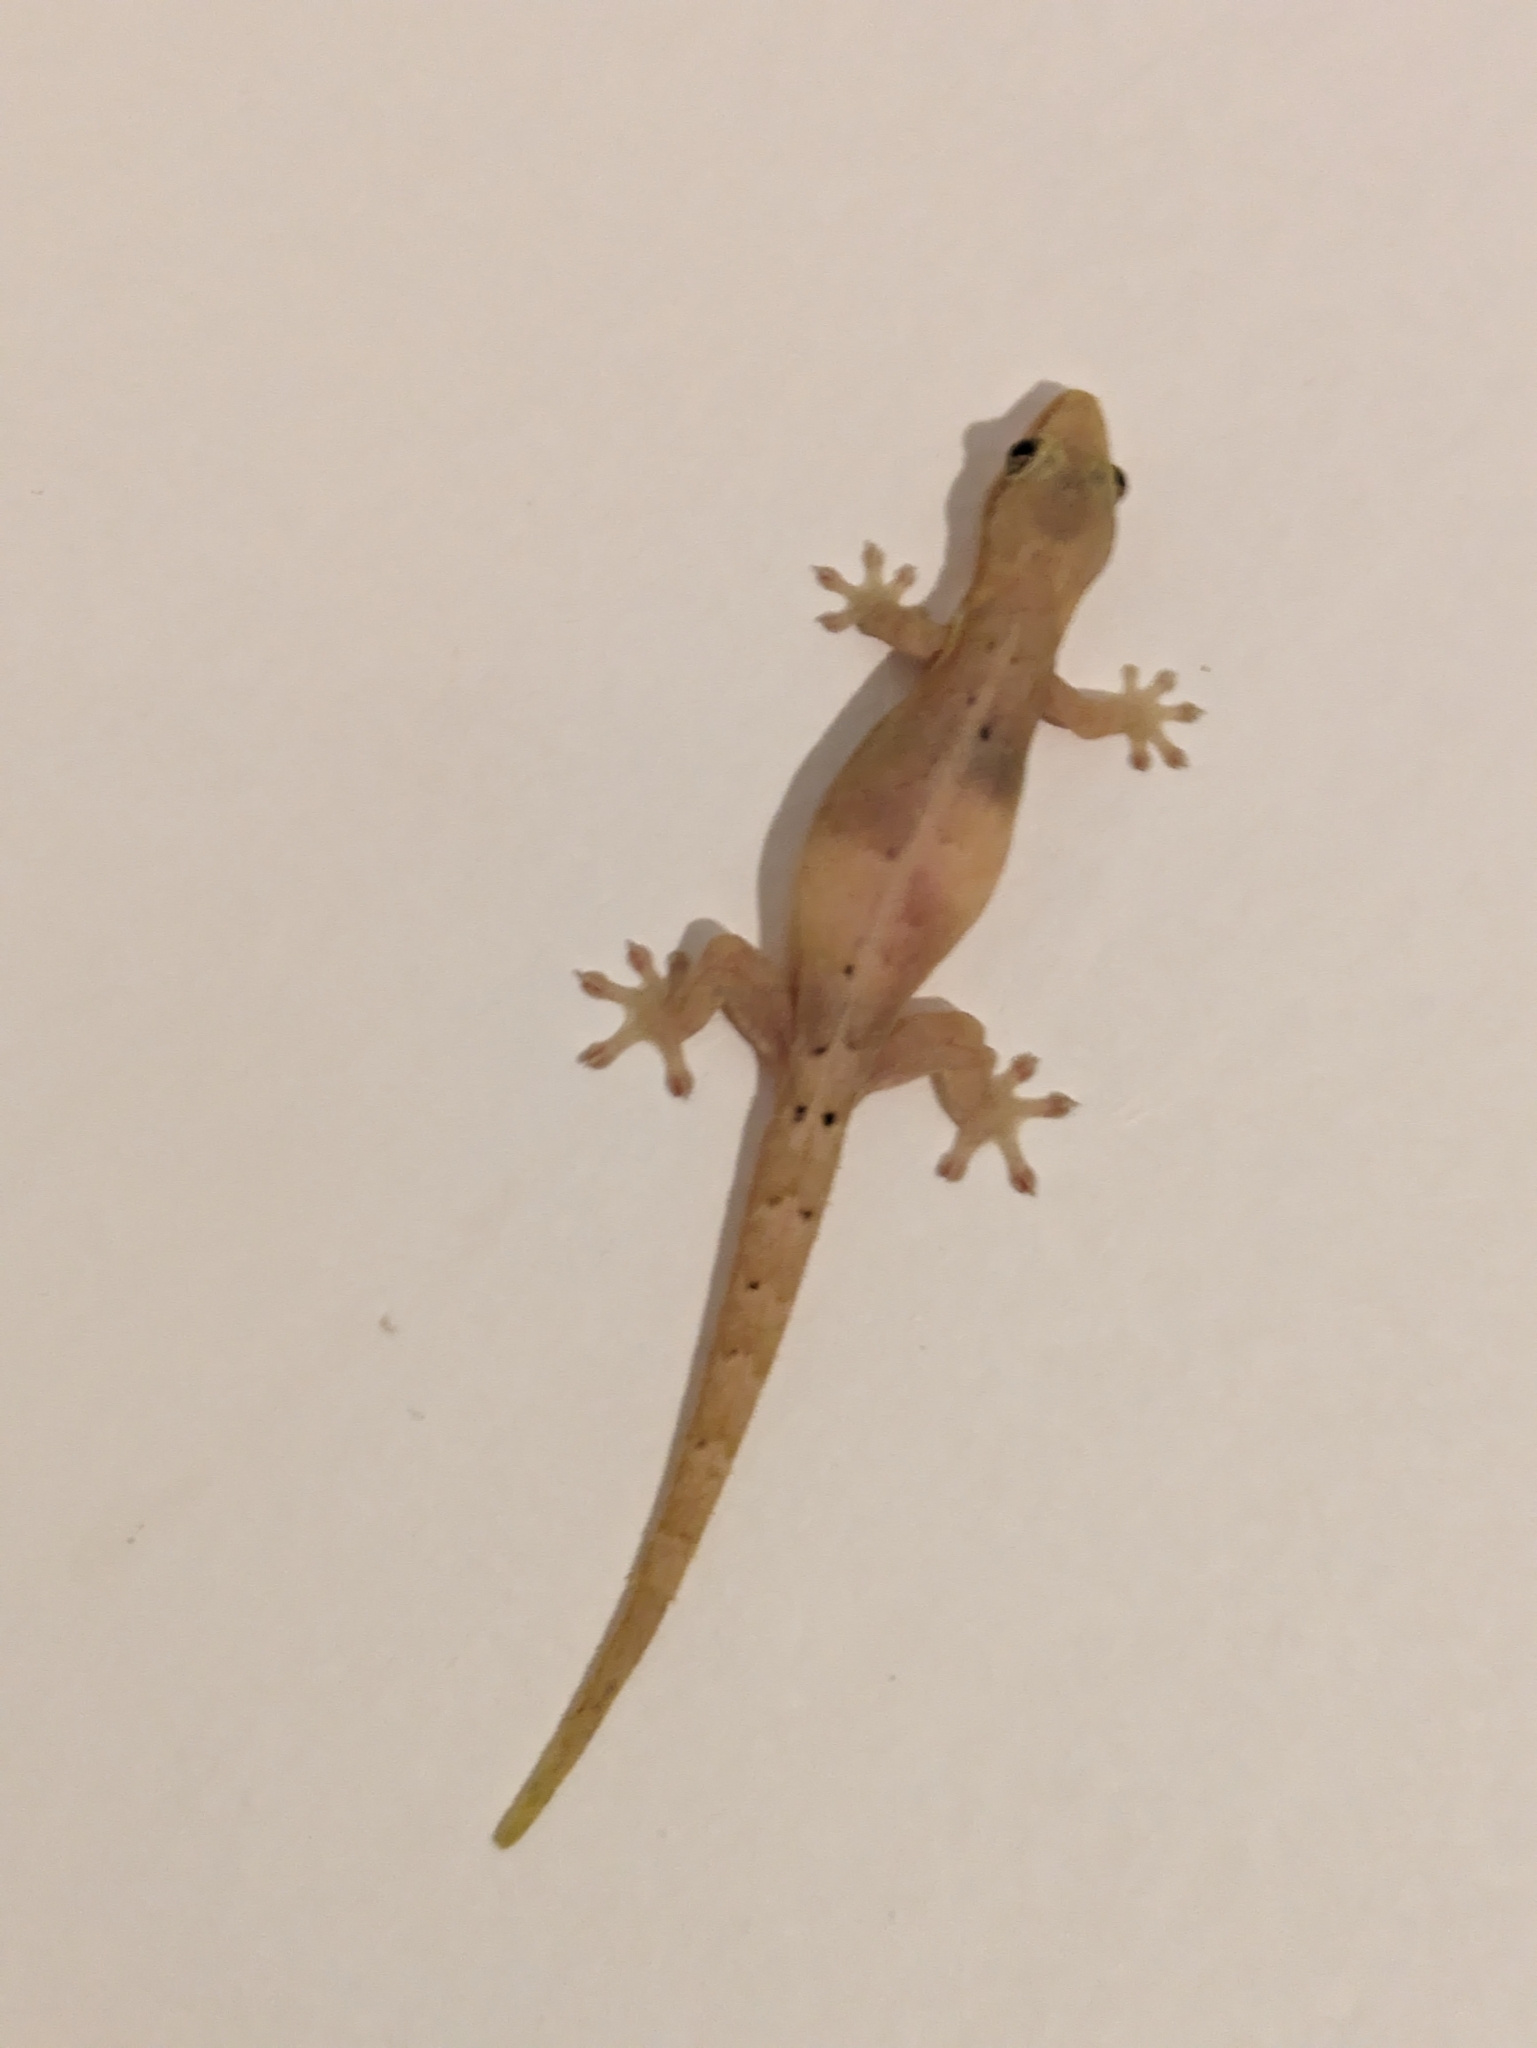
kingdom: Animalia
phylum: Chordata
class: Squamata
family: Gekkonidae
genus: Lepidodactylus
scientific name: Lepidodactylus lugubris
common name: Mourning gecko
